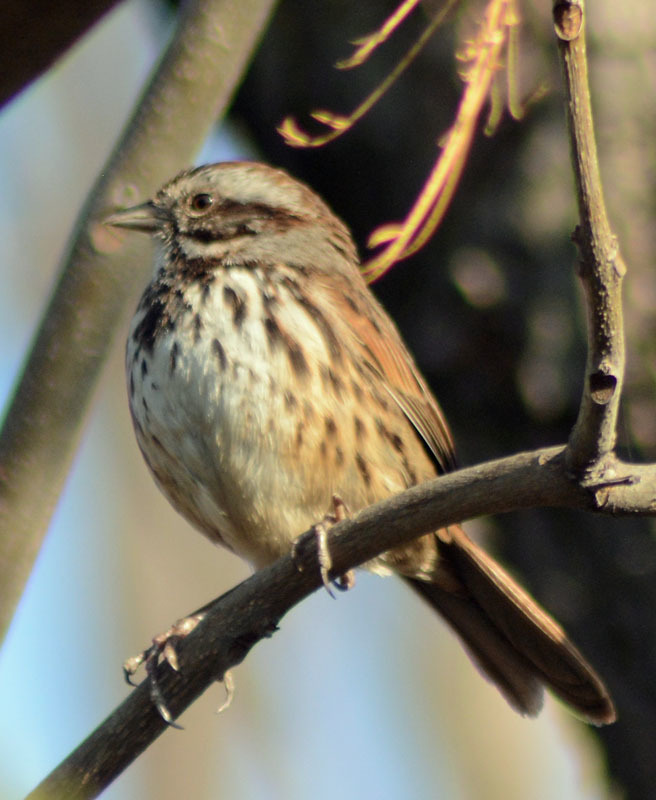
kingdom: Animalia
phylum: Chordata
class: Aves
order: Passeriformes
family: Passerellidae
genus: Melospiza
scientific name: Melospiza melodia
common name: Song sparrow
